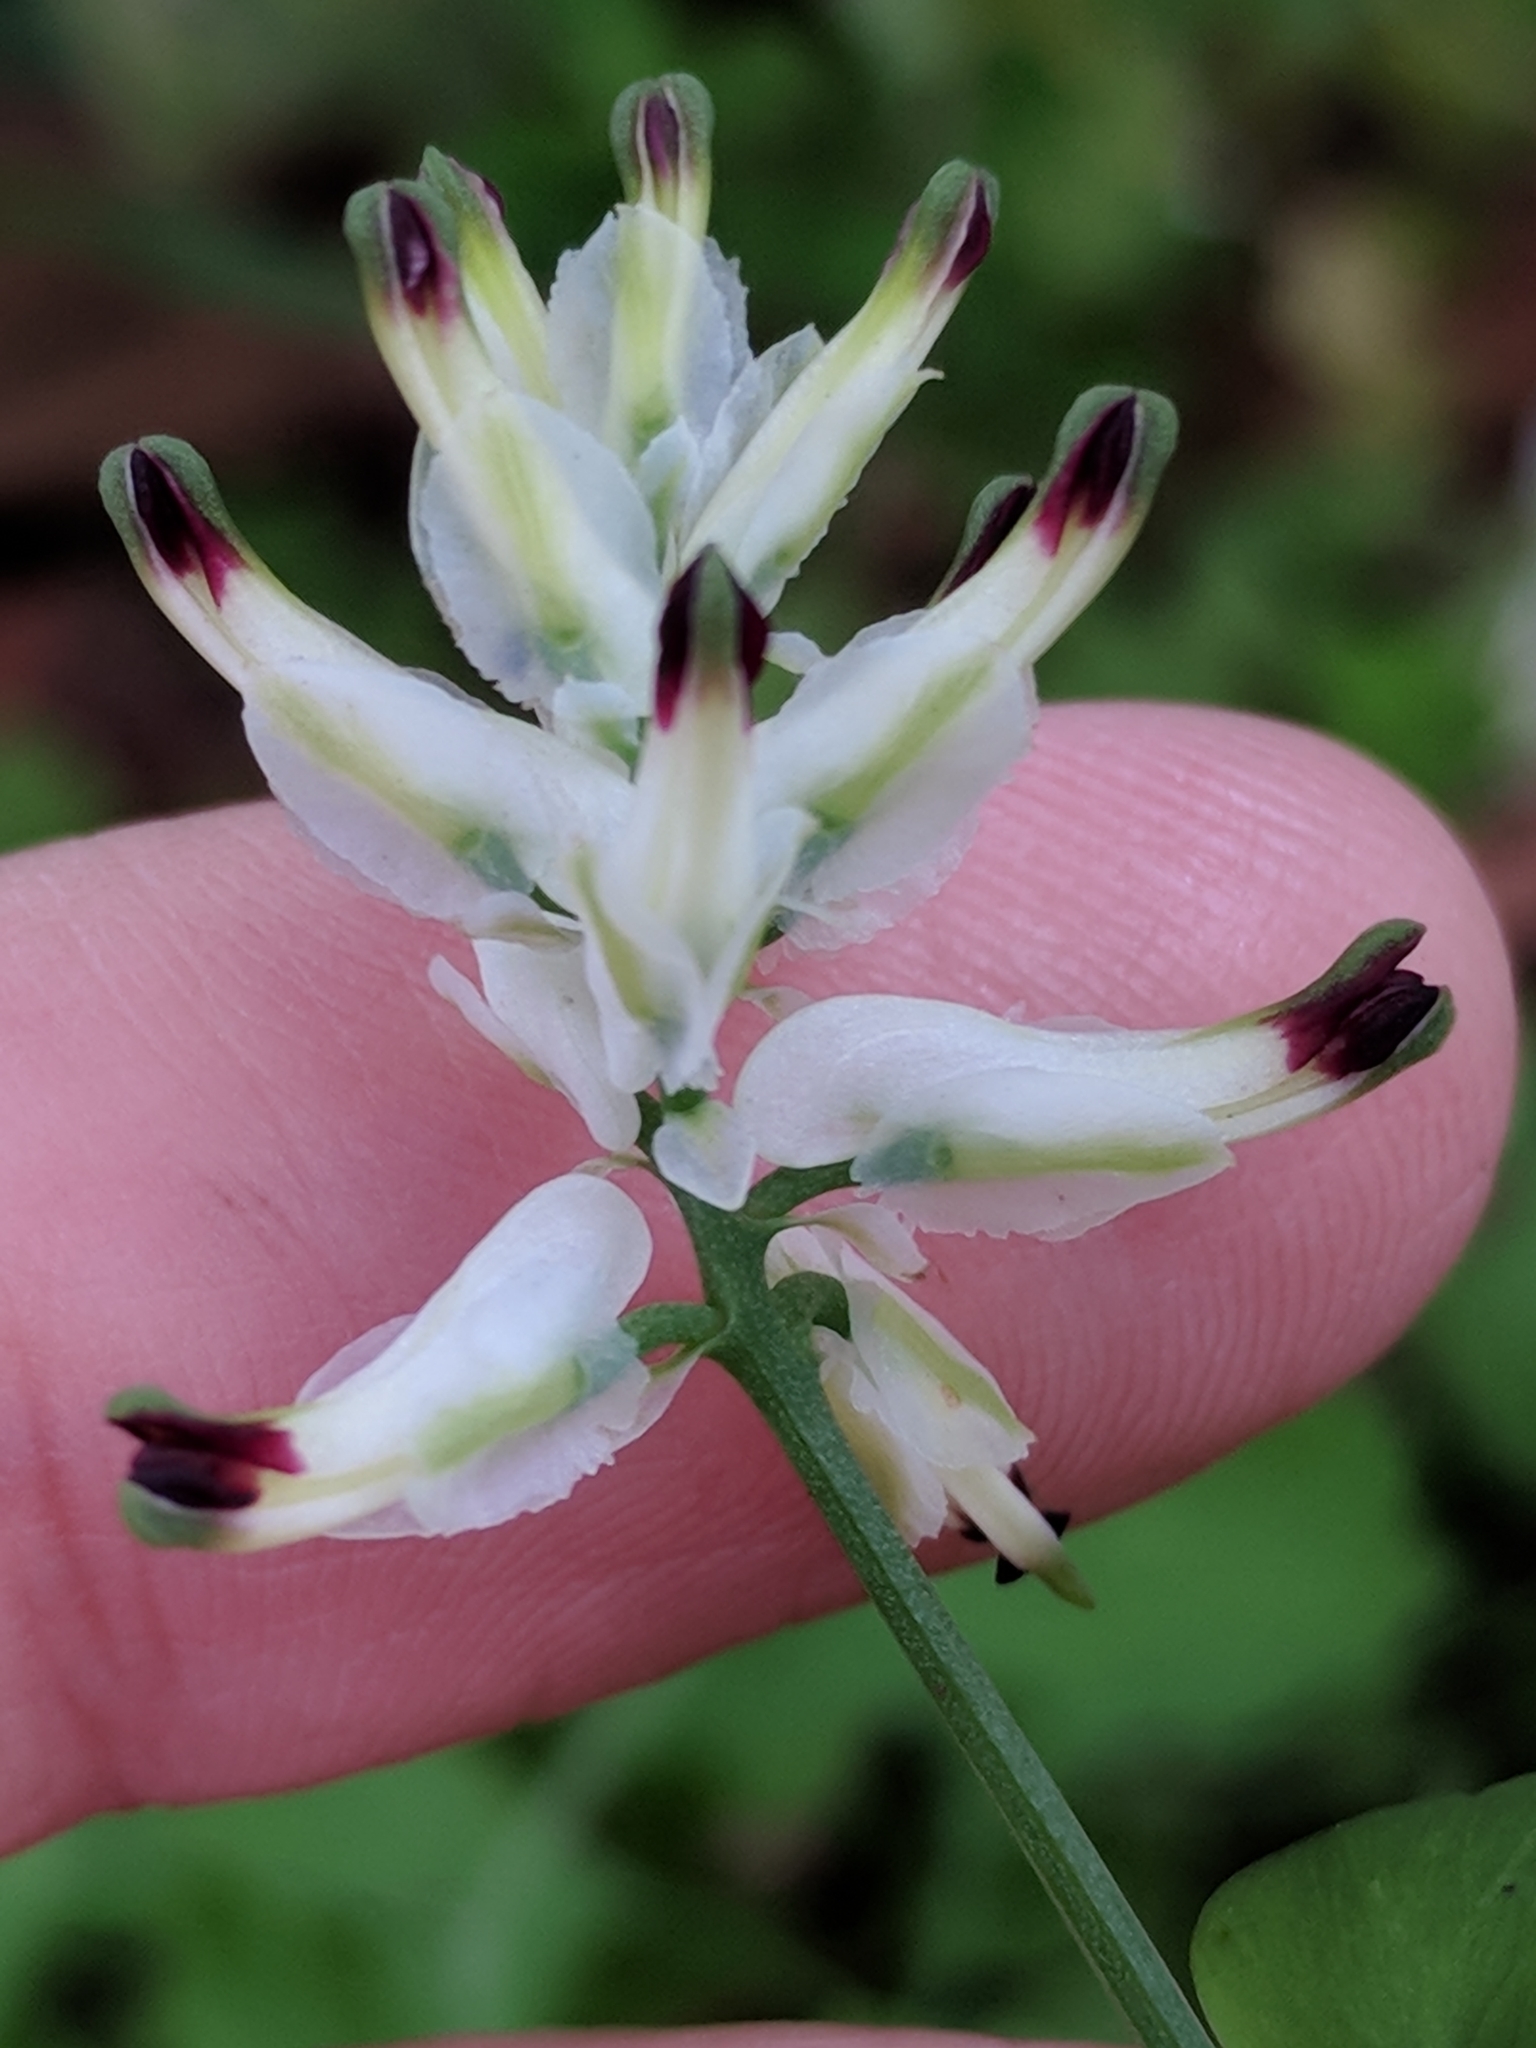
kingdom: Plantae
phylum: Tracheophyta
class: Magnoliopsida
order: Ranunculales
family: Papaveraceae
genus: Fumaria
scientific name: Fumaria capreolata
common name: White ramping-fumitory
